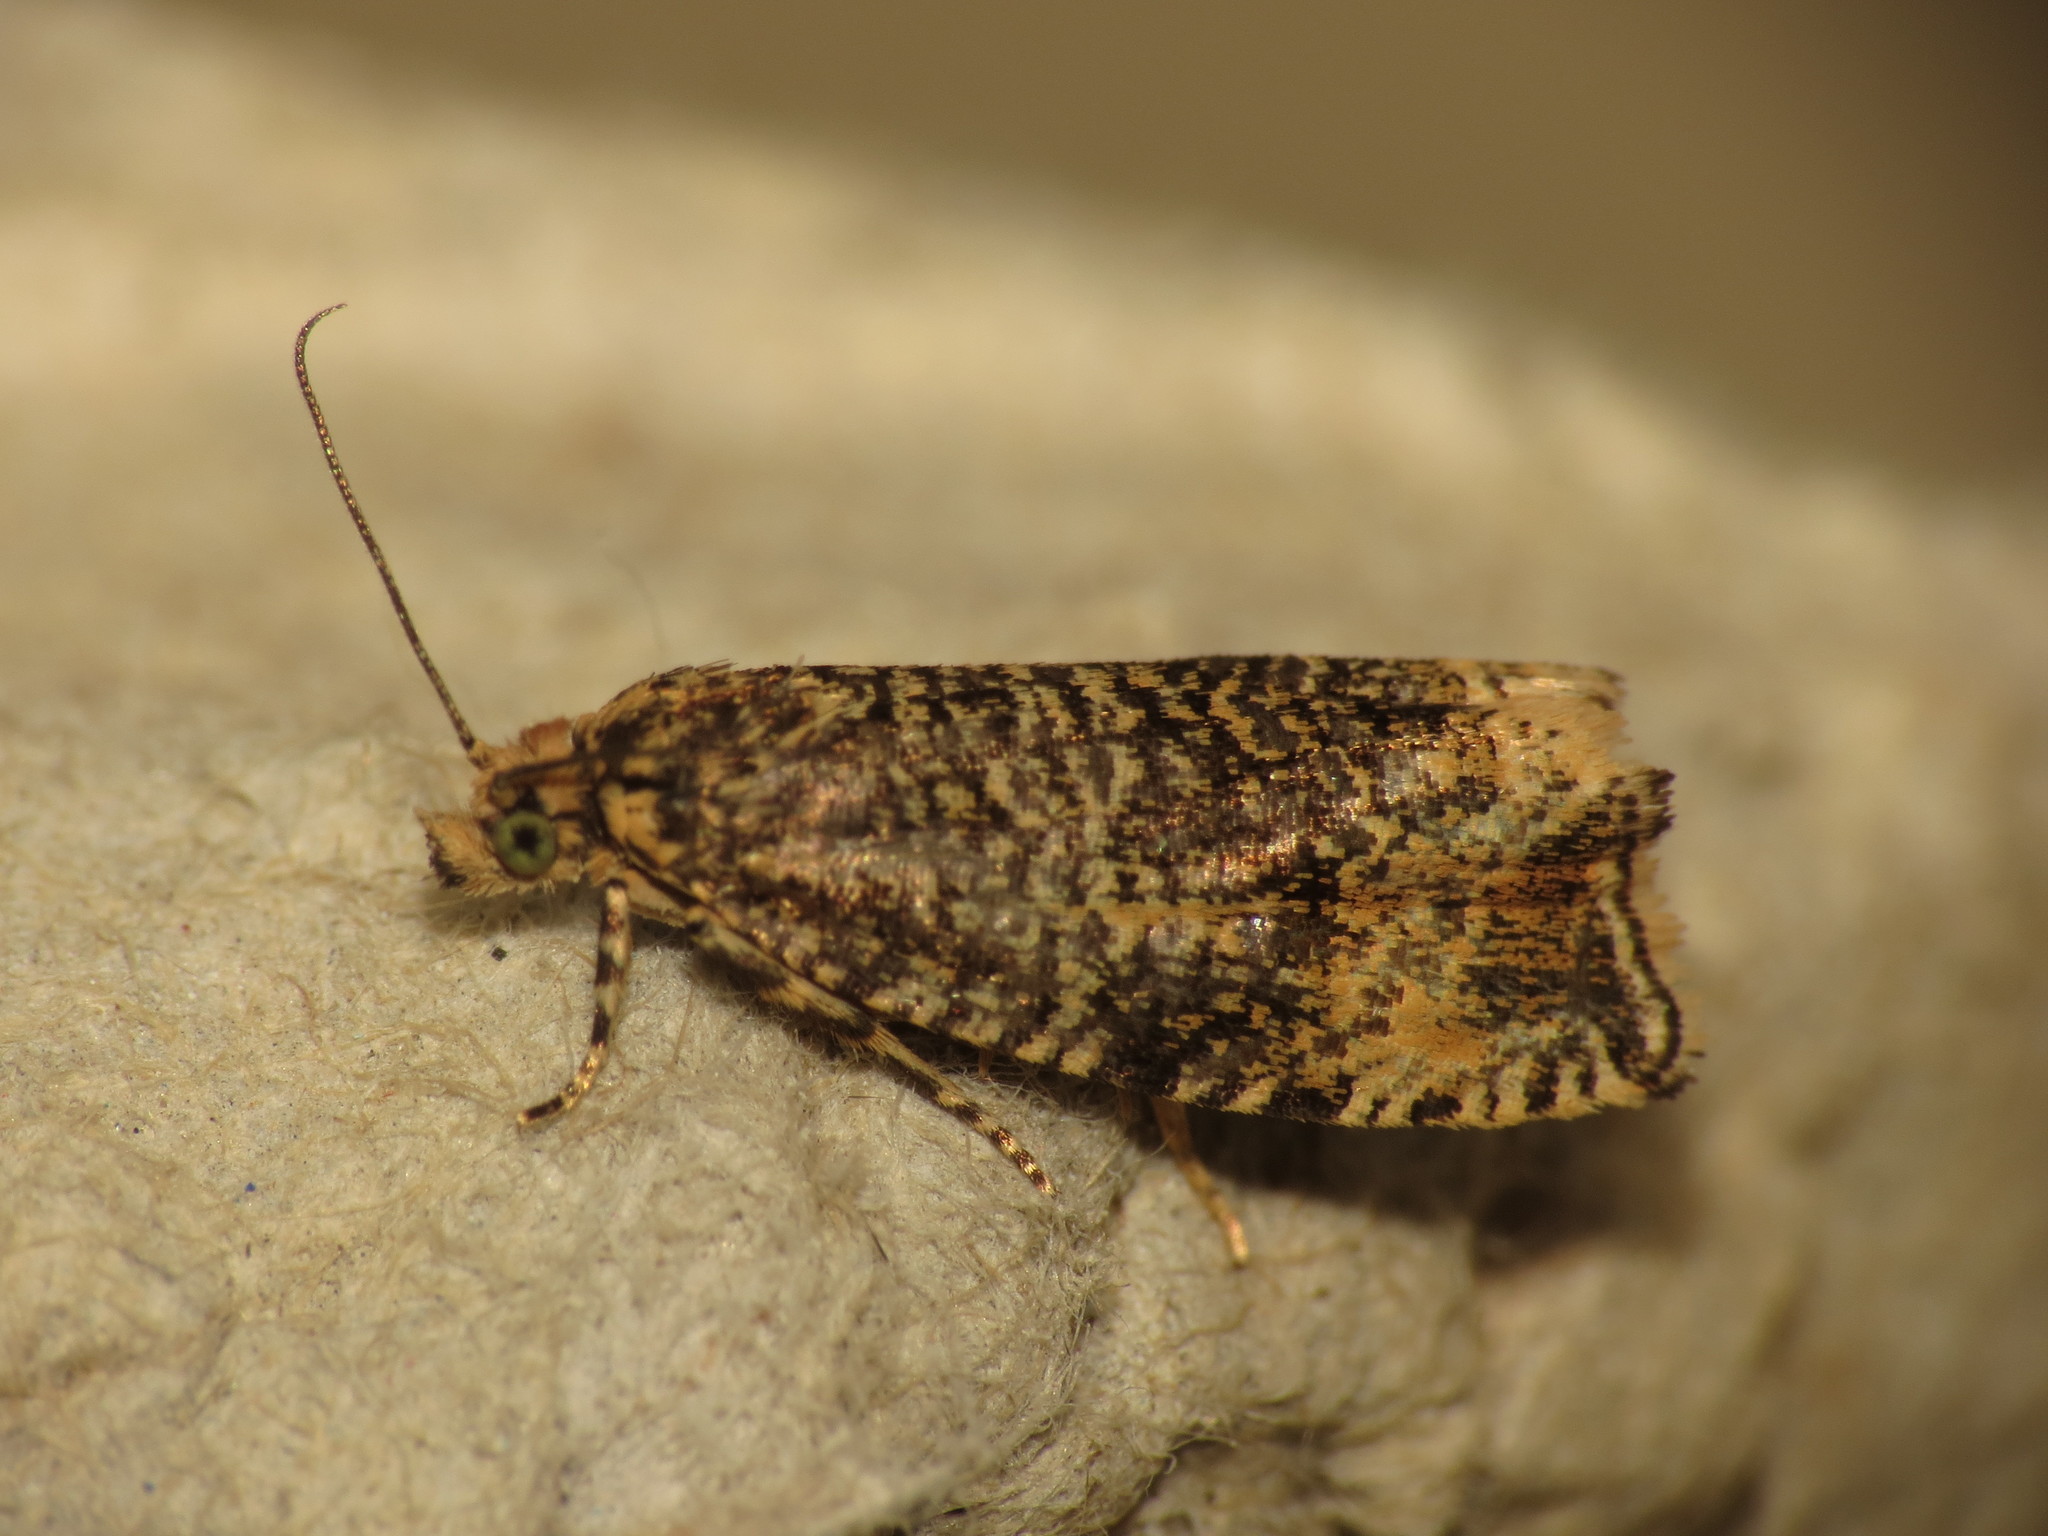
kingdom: Animalia
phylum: Arthropoda
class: Insecta
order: Lepidoptera
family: Tortricidae
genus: Syricoris
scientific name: Syricoris lacunana
